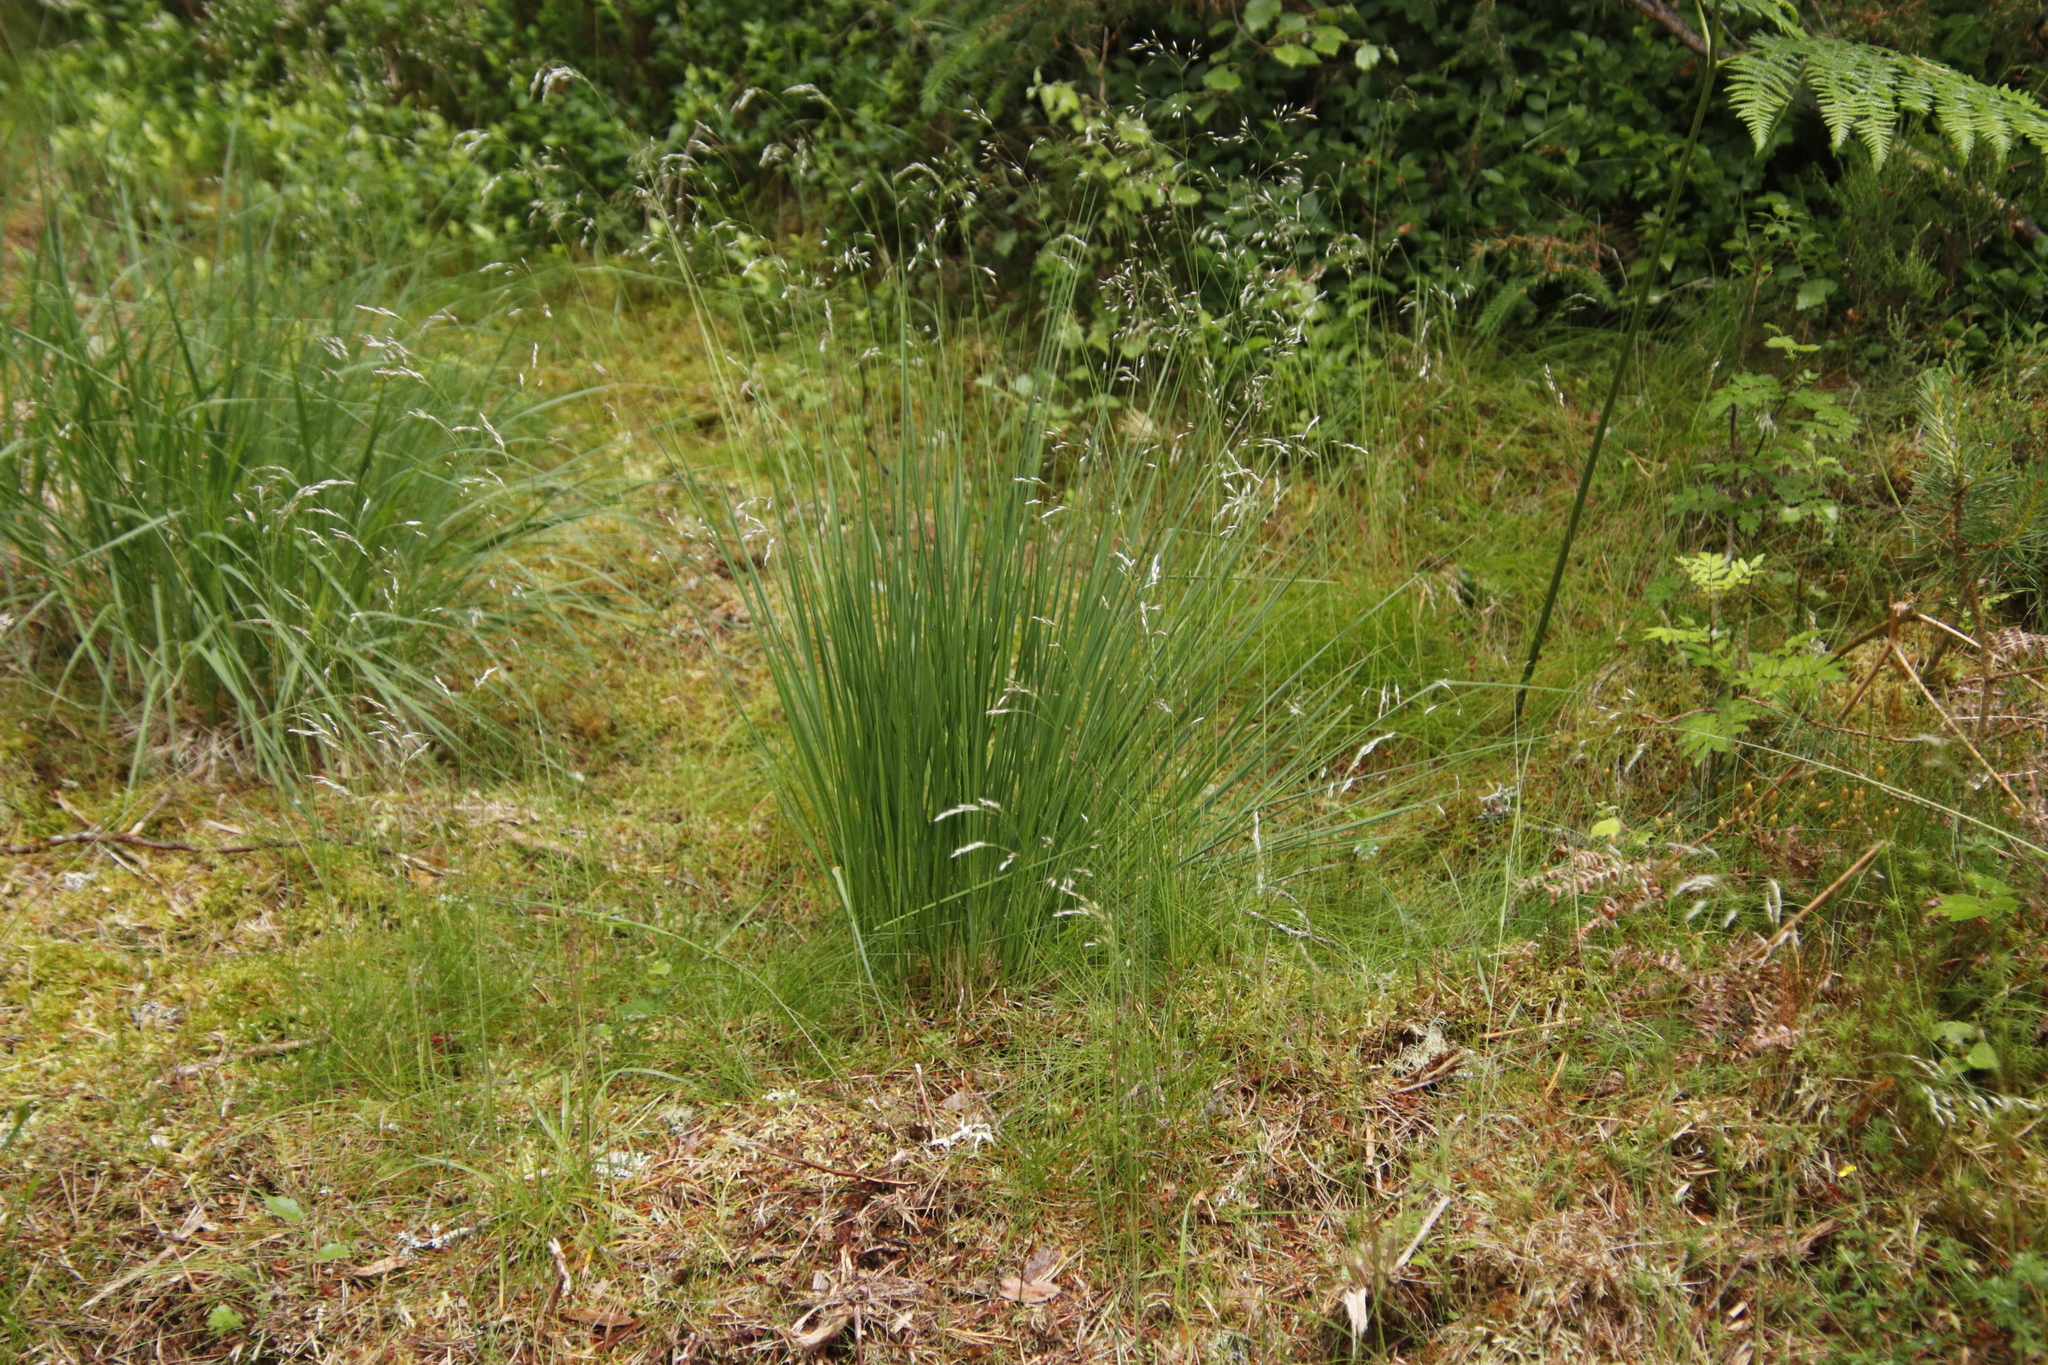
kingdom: Plantae
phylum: Tracheophyta
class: Liliopsida
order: Poales
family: Poaceae
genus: Avenella
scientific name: Avenella flexuosa
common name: Wavy hairgrass
